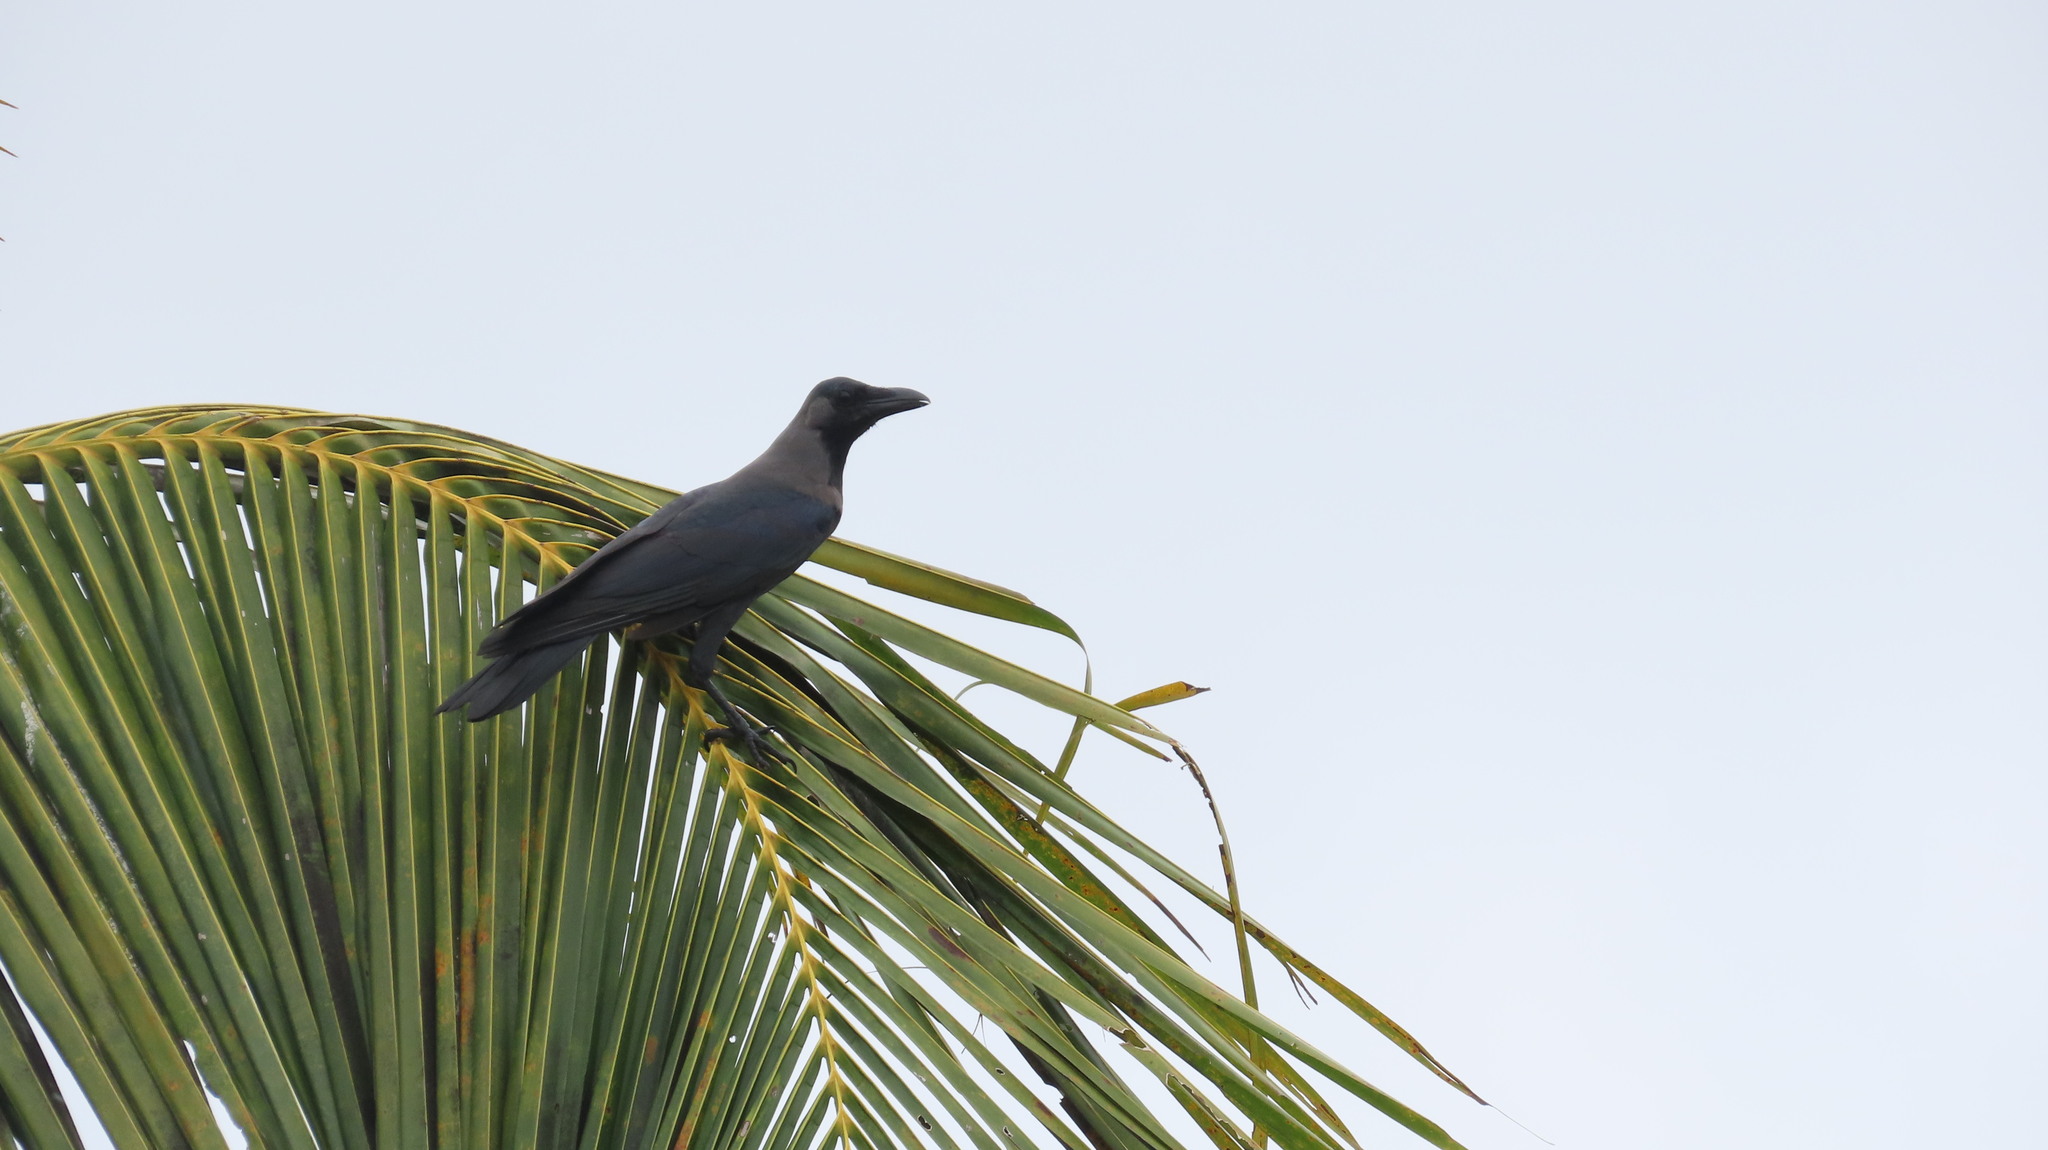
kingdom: Animalia
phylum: Chordata
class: Aves
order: Passeriformes
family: Corvidae
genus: Corvus
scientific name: Corvus splendens
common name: House crow
